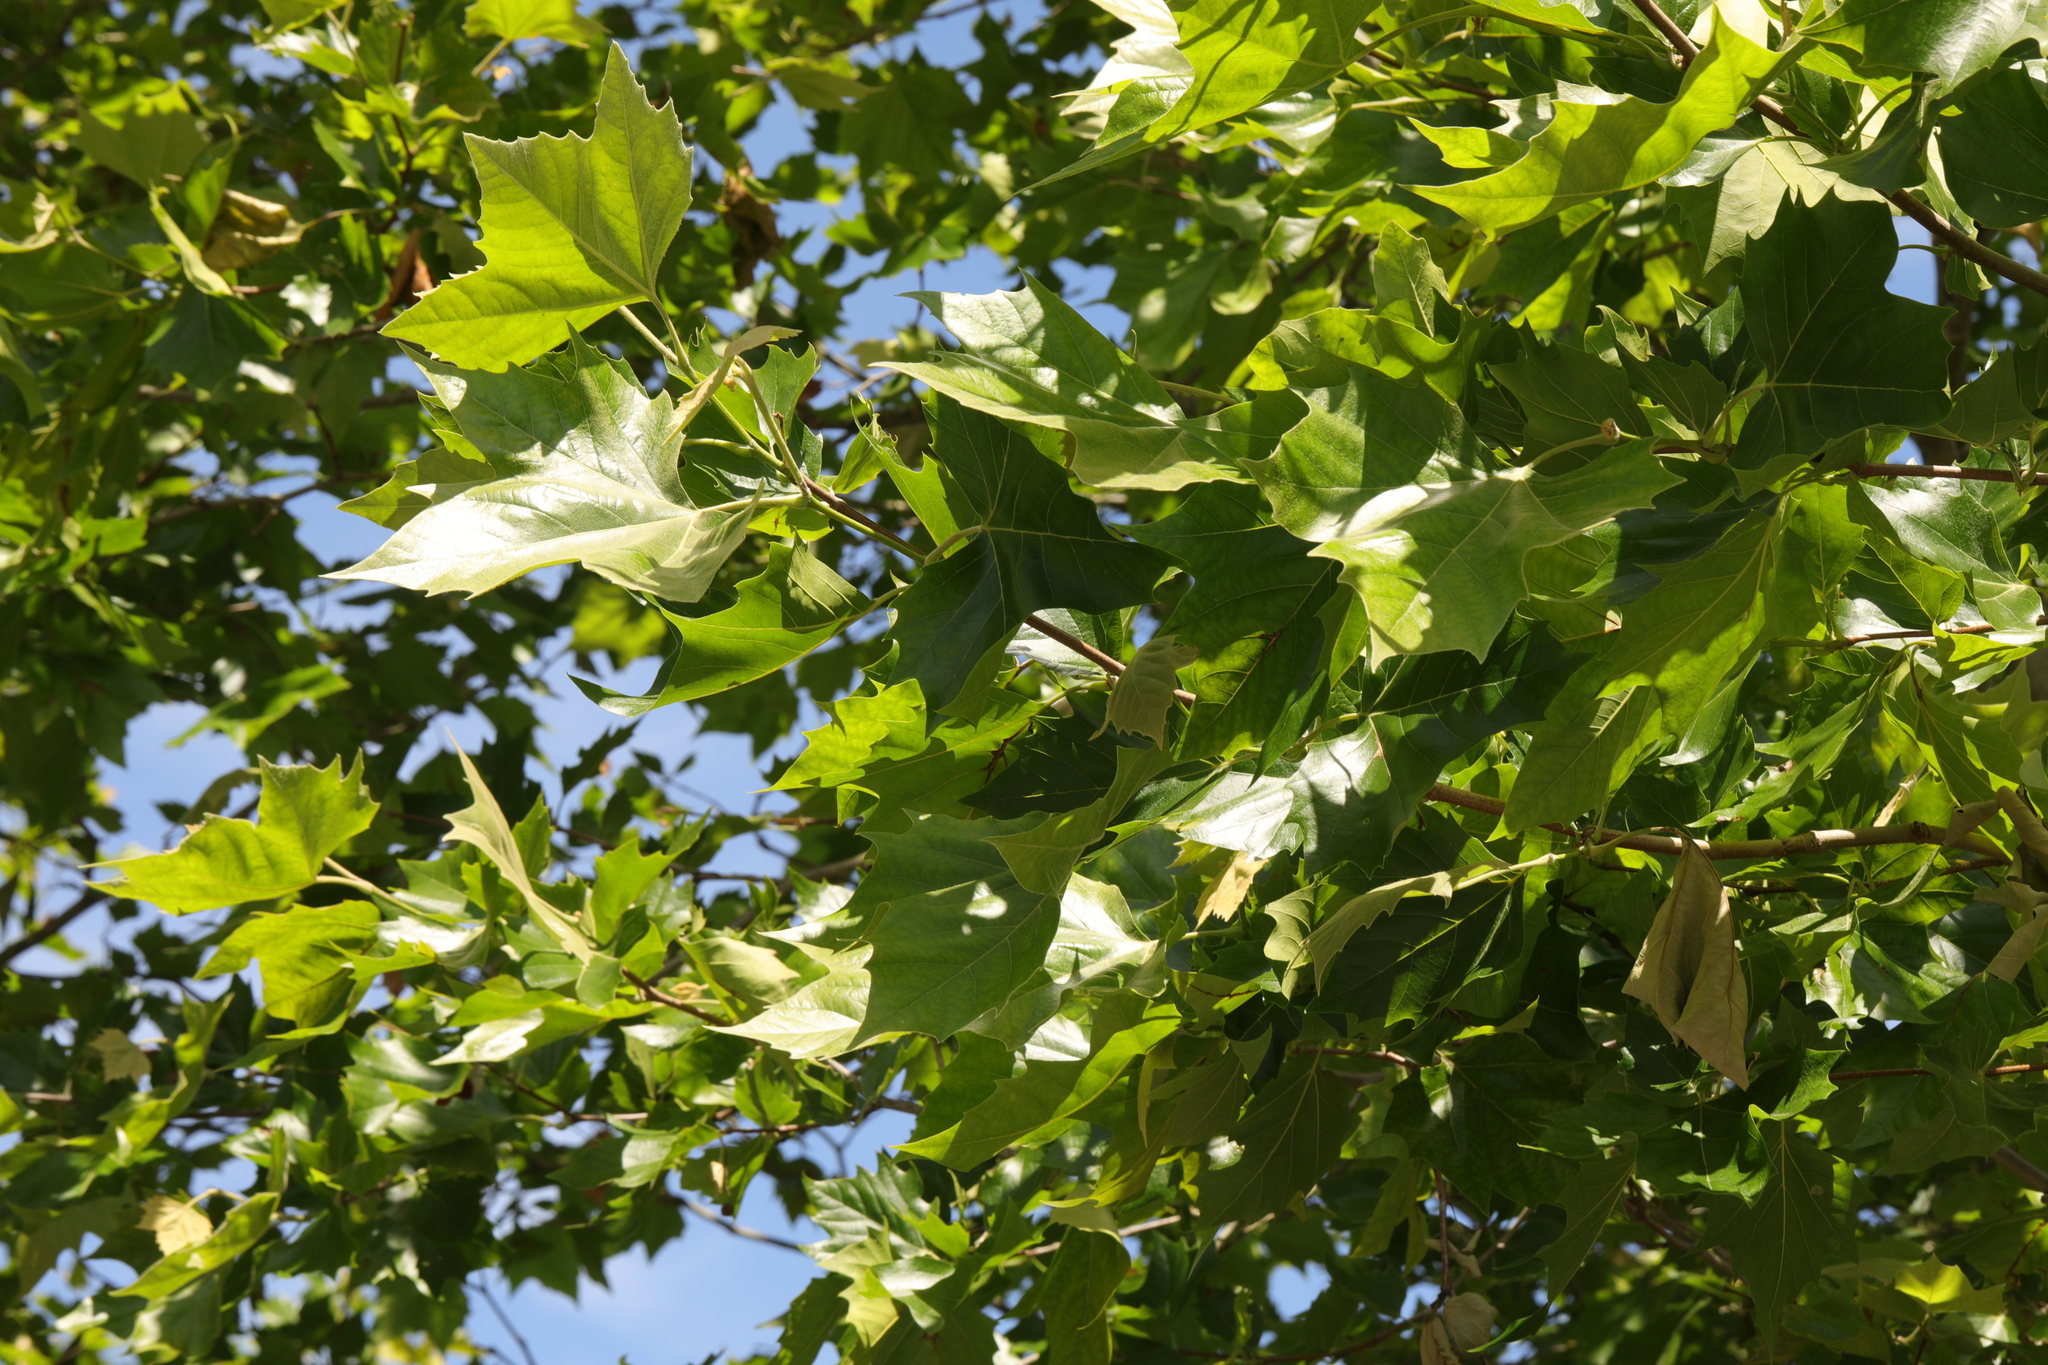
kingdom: Plantae
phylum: Tracheophyta
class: Magnoliopsida
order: Proteales
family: Platanaceae
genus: Platanus
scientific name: Platanus hispanica
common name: London plane
